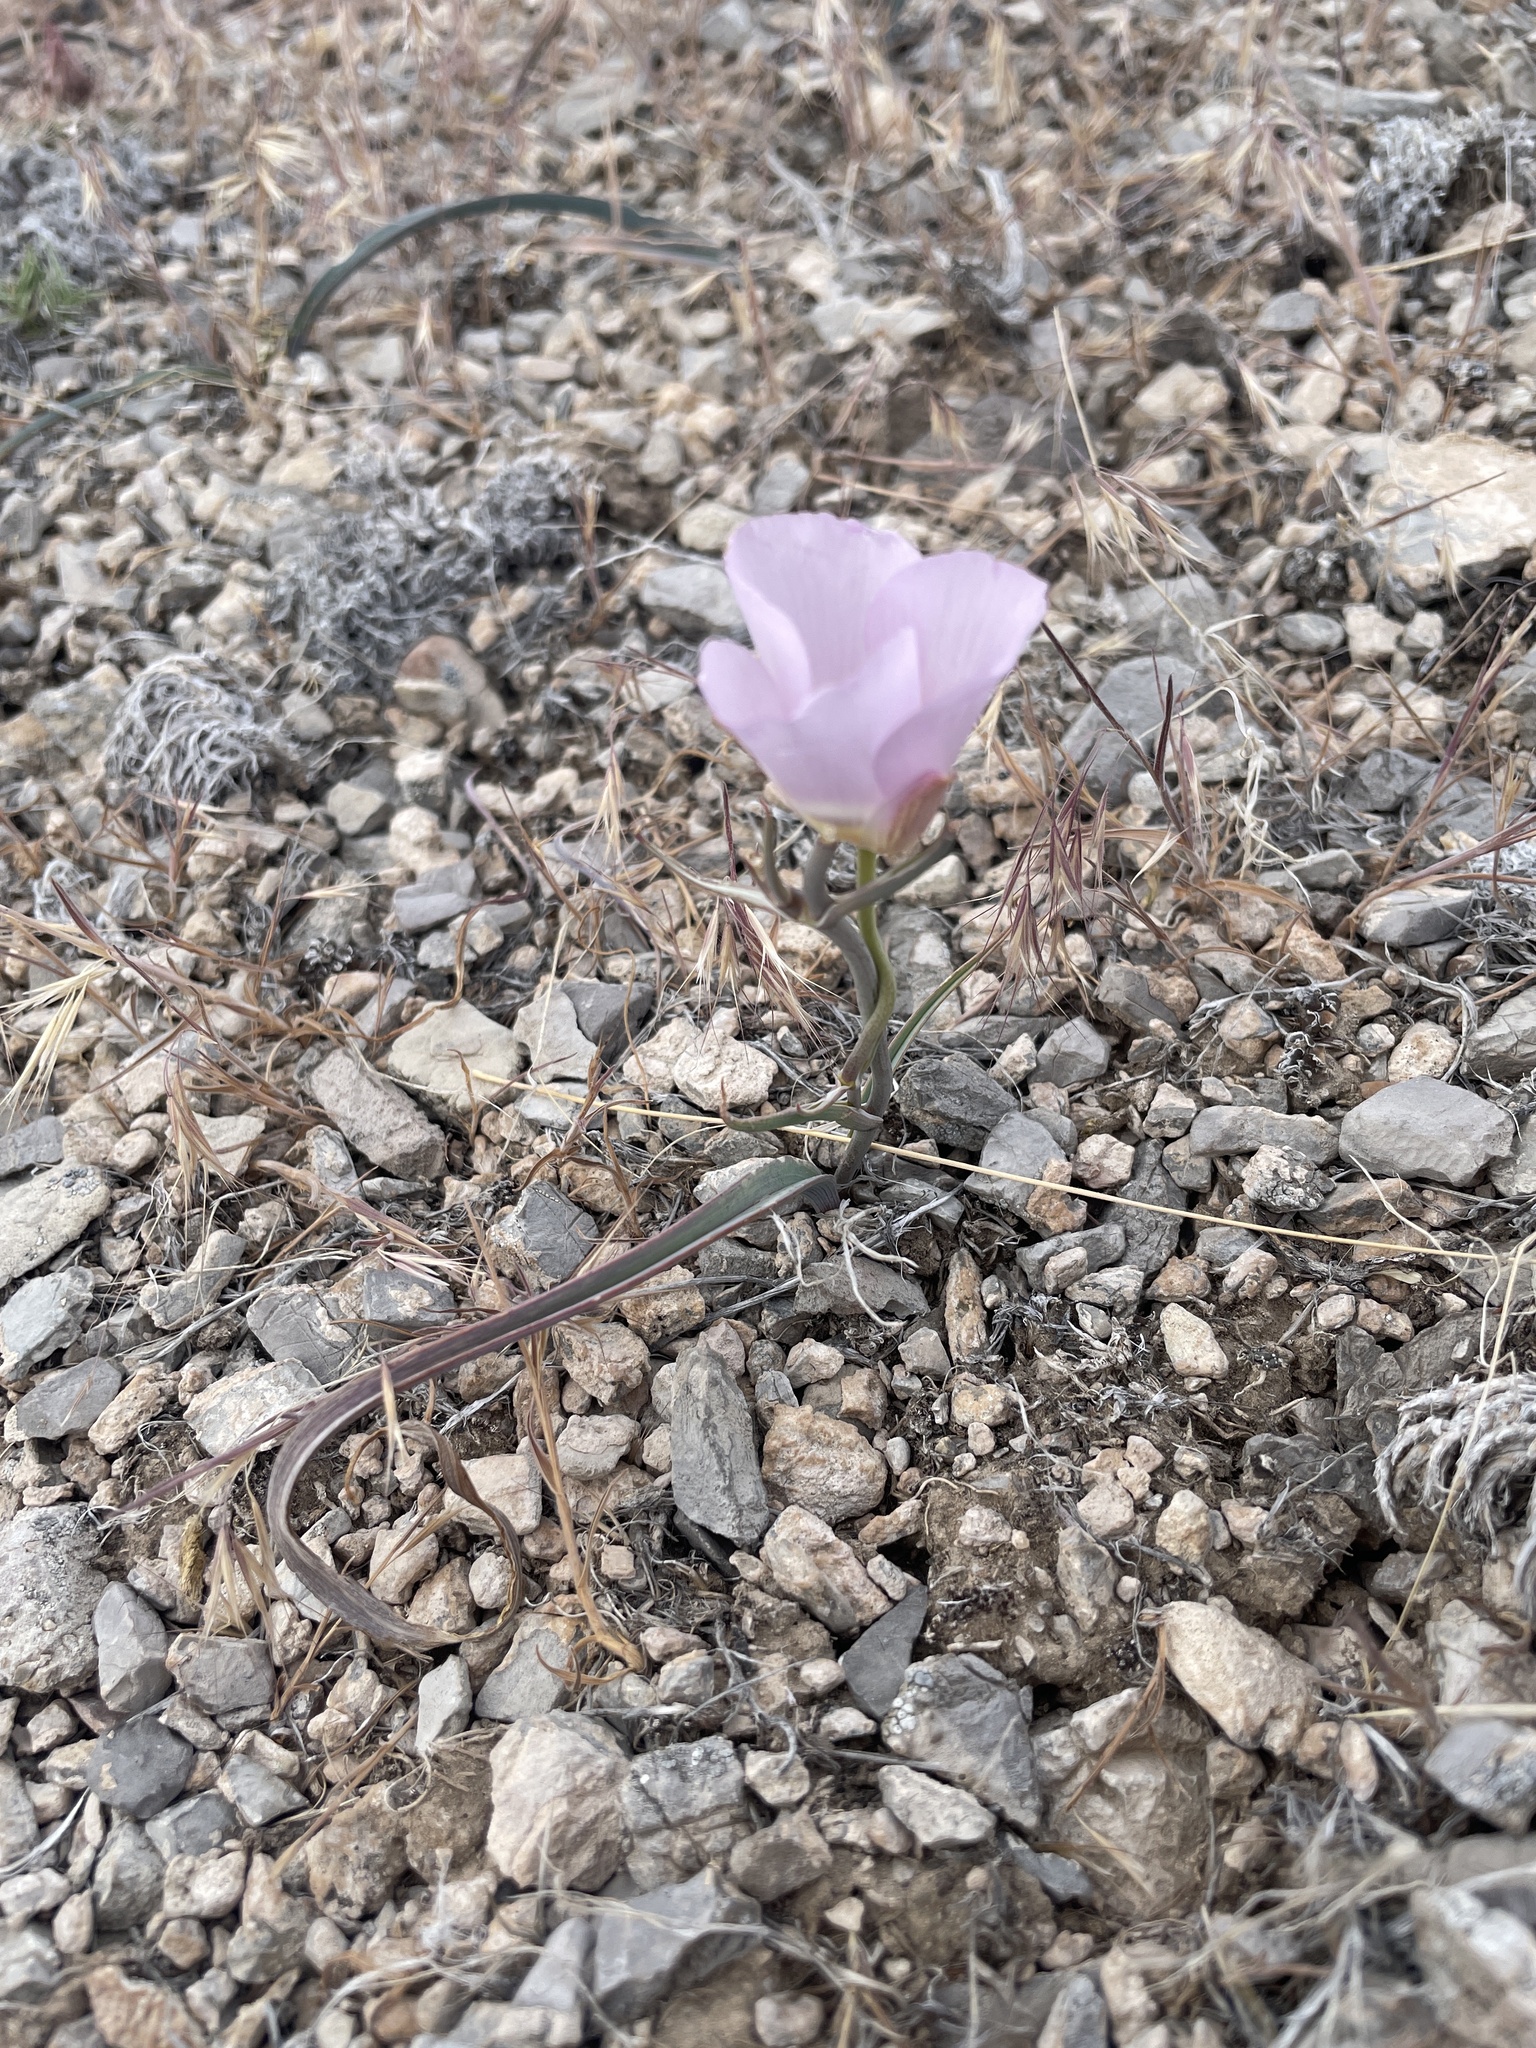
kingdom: Plantae
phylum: Tracheophyta
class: Liliopsida
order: Liliales
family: Liliaceae
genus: Calochortus
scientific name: Calochortus flexuosus
